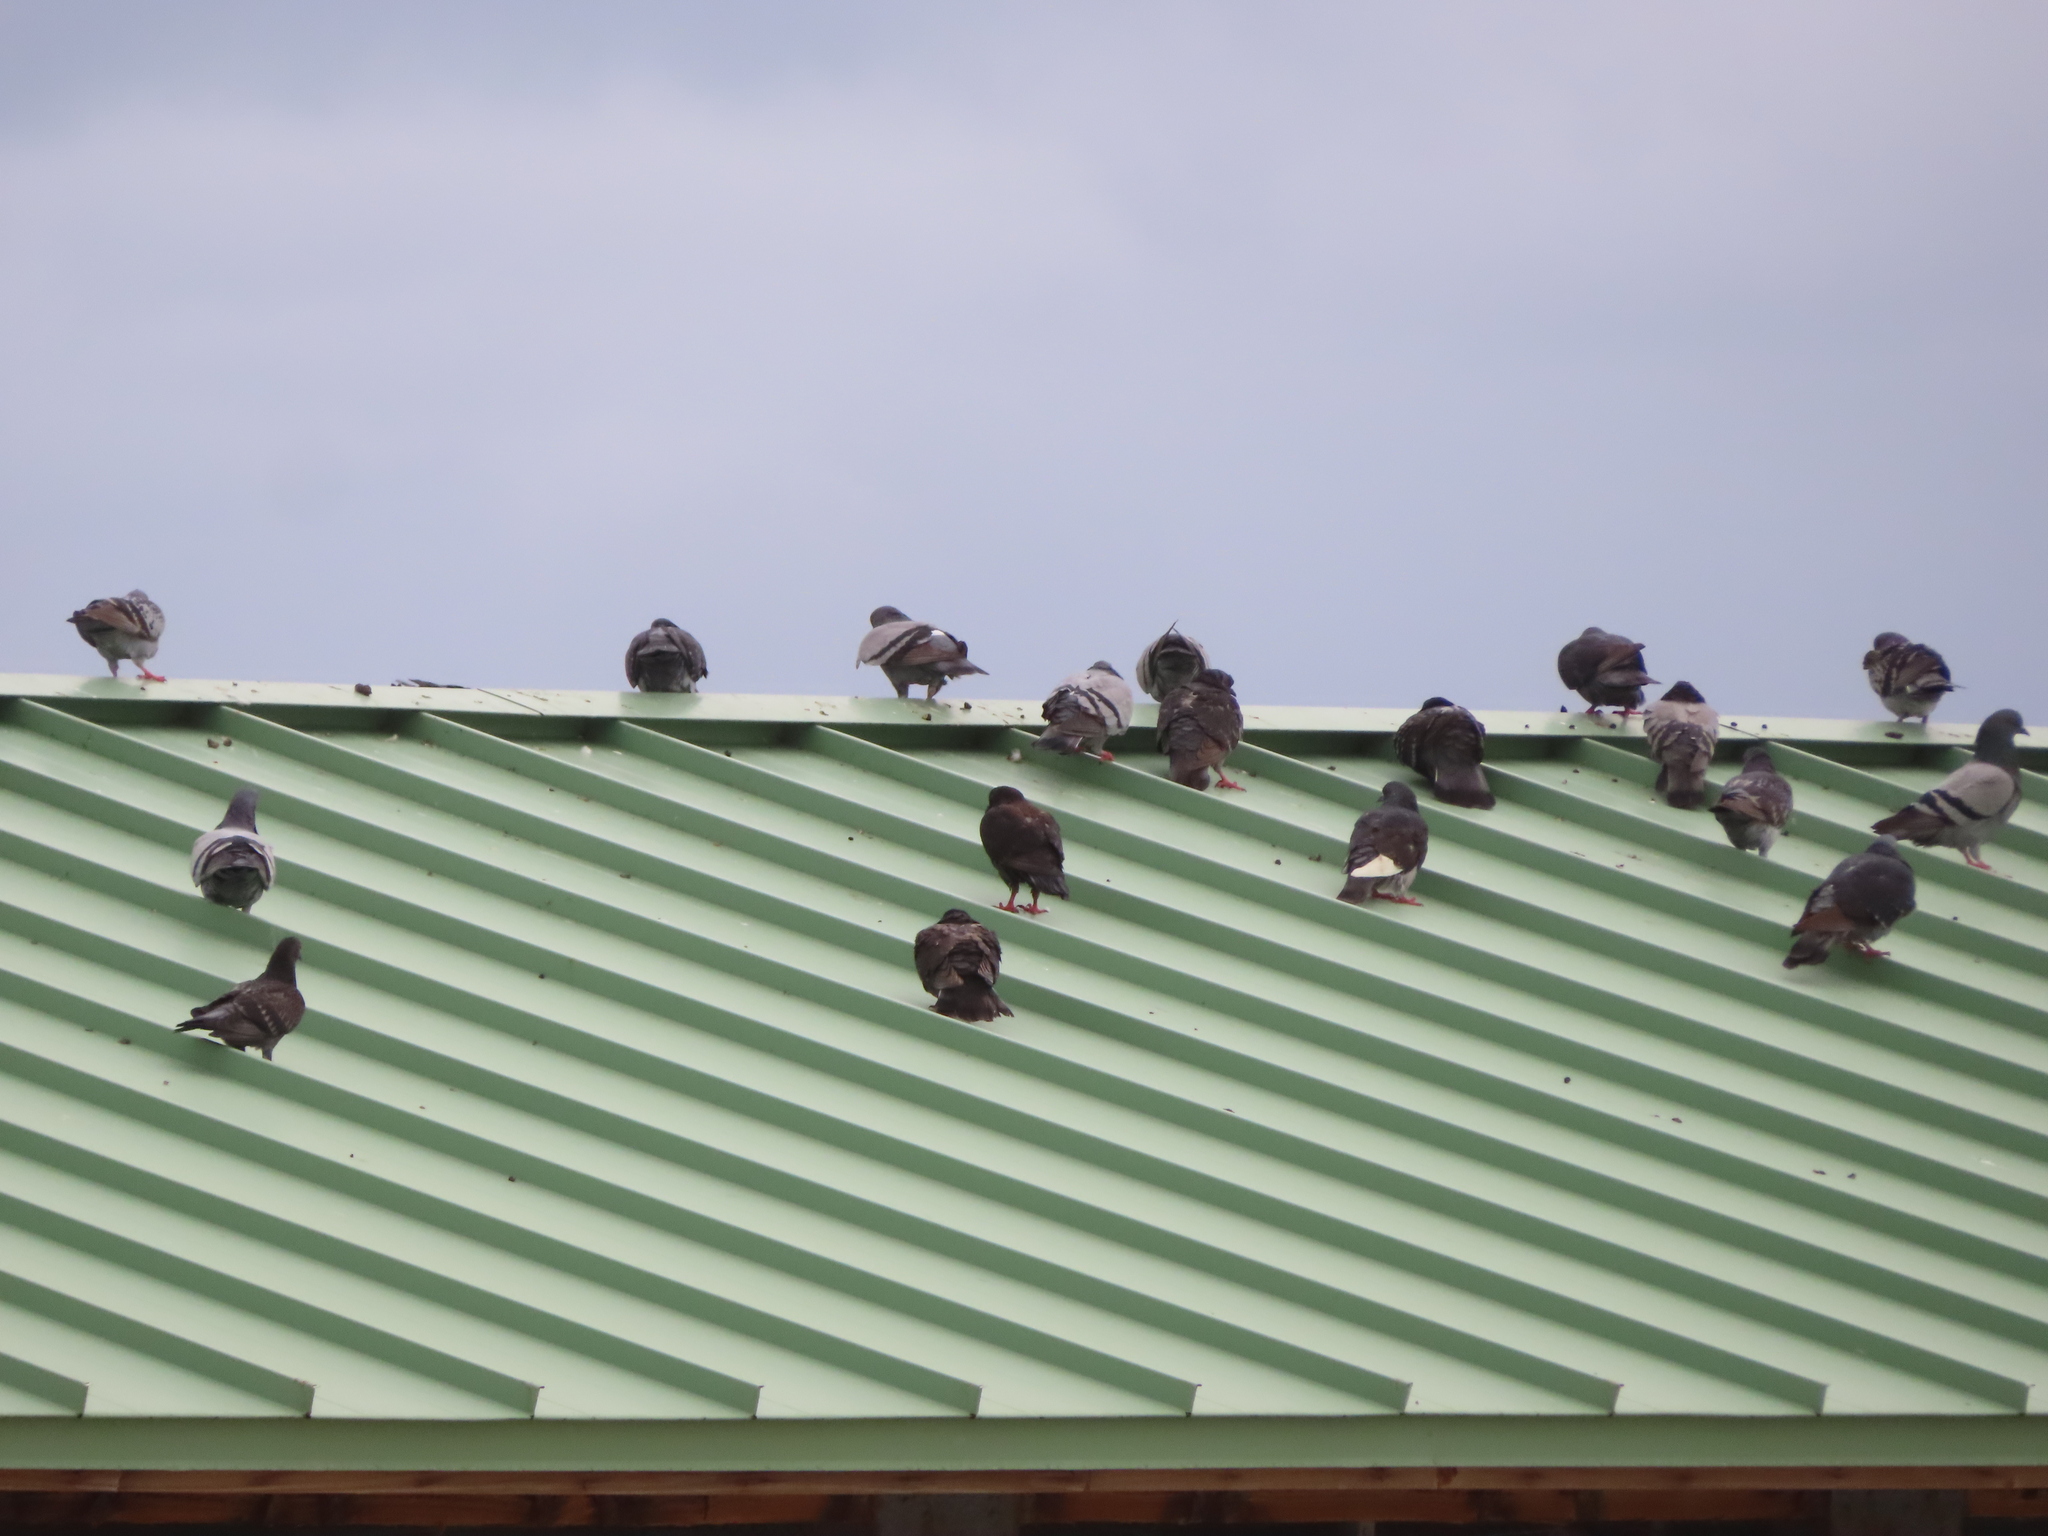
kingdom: Animalia
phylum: Chordata
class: Aves
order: Columbiformes
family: Columbidae
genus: Columba
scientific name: Columba livia
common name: Rock pigeon
